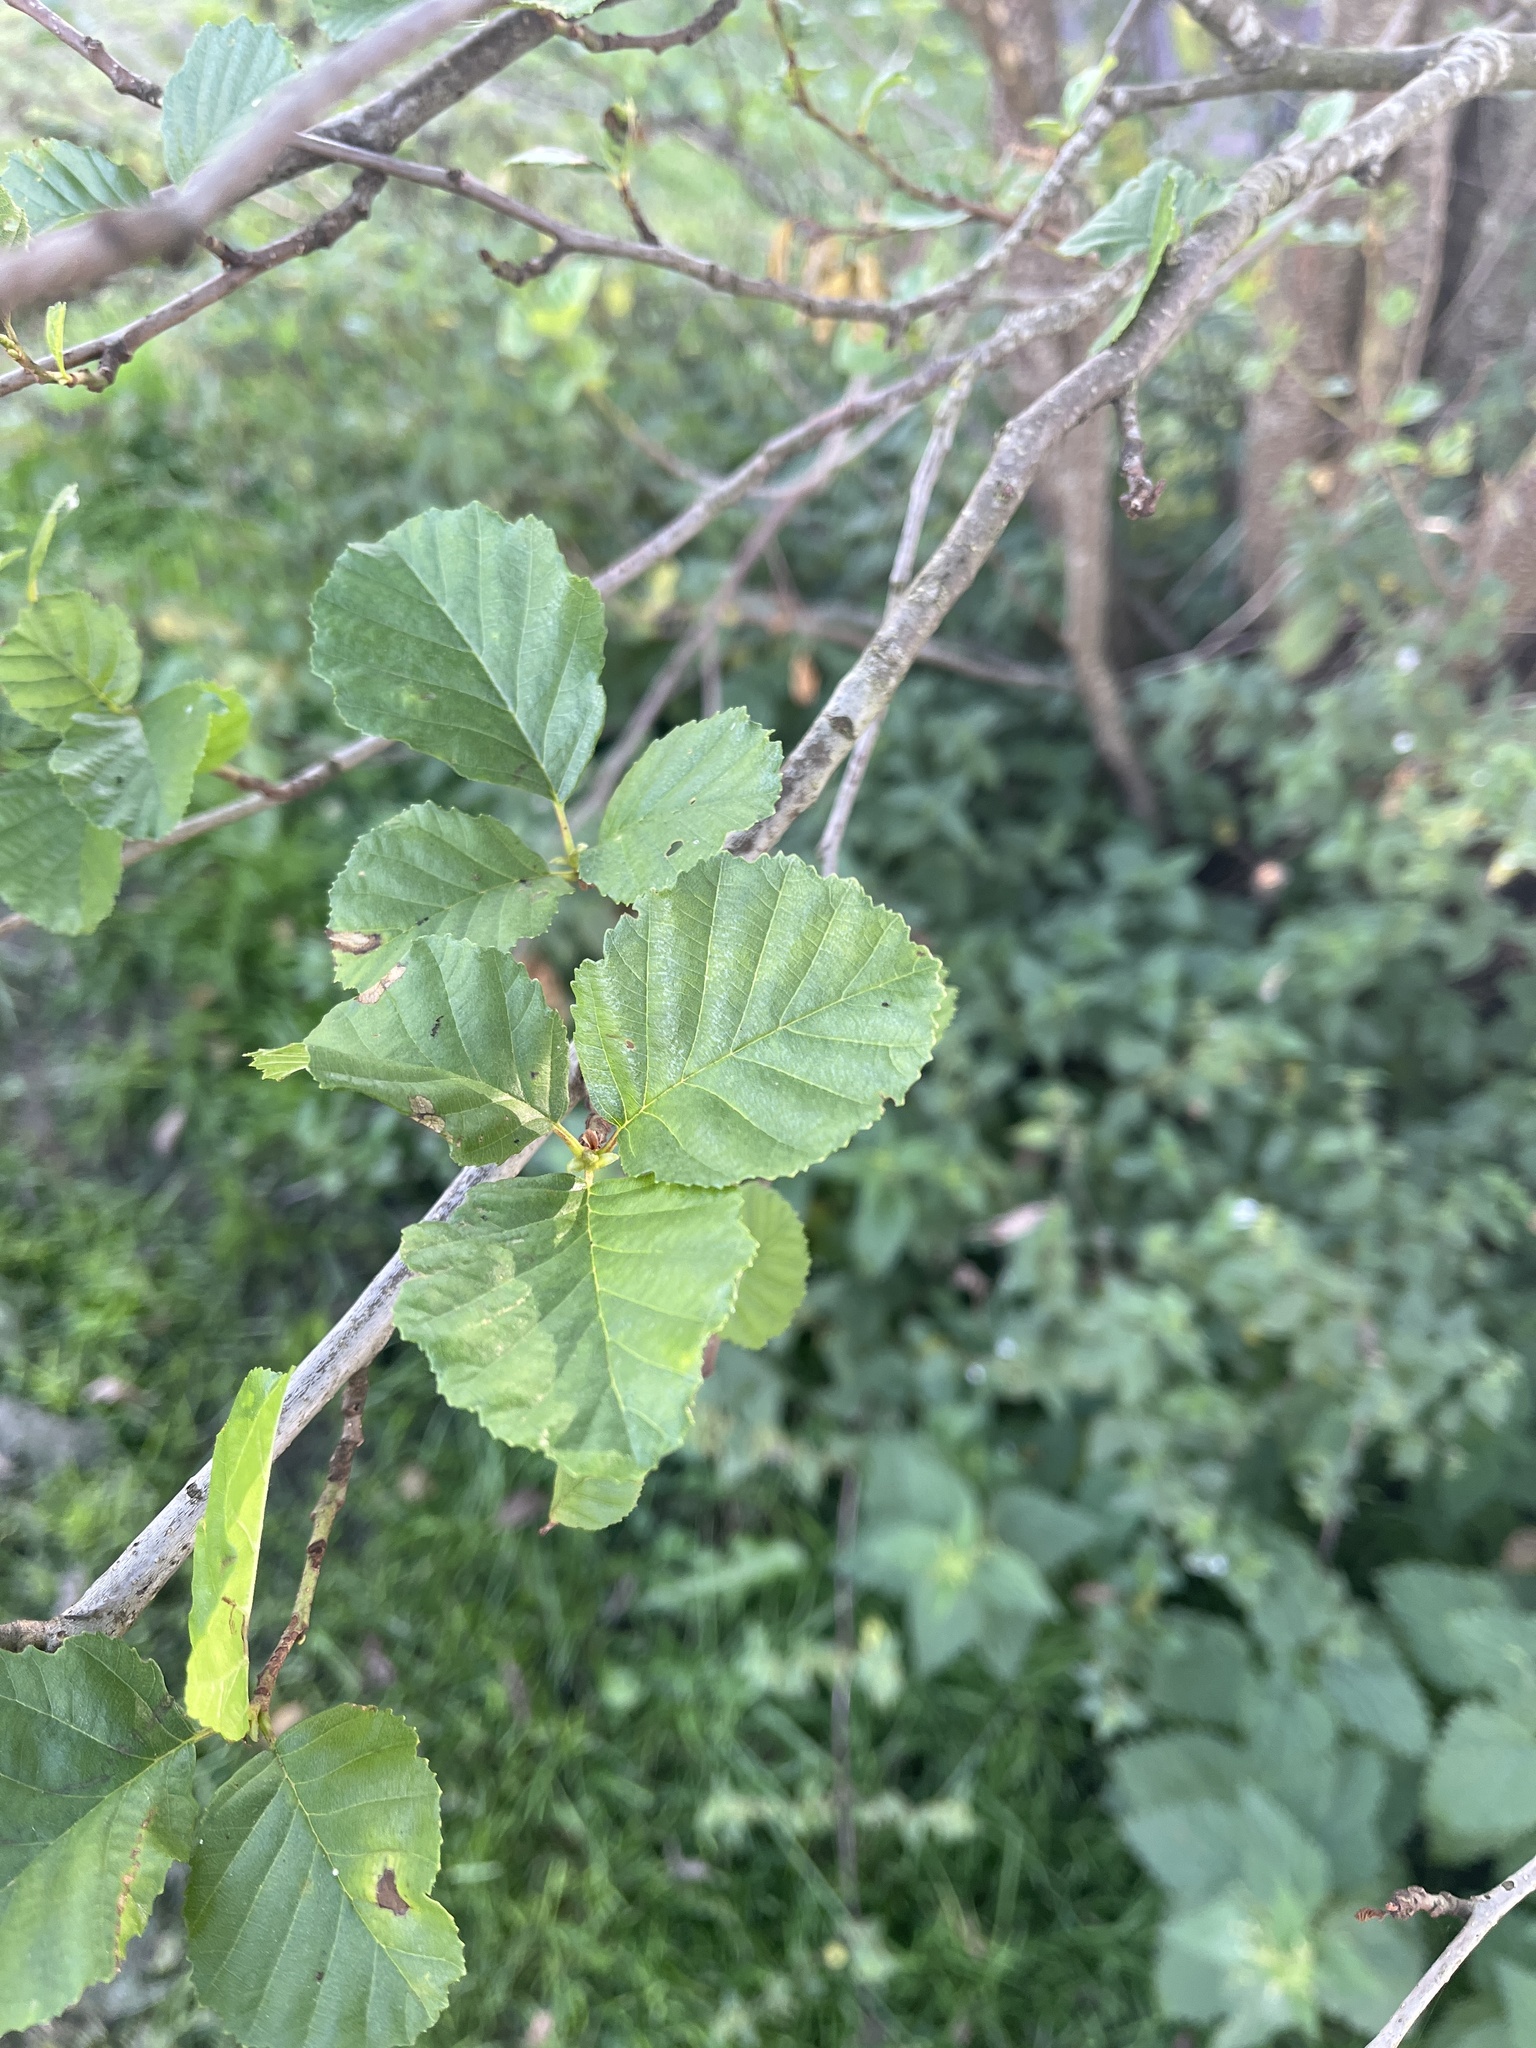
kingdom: Plantae
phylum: Tracheophyta
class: Magnoliopsida
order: Fagales
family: Betulaceae
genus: Alnus
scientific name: Alnus glutinosa
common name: Black alder
